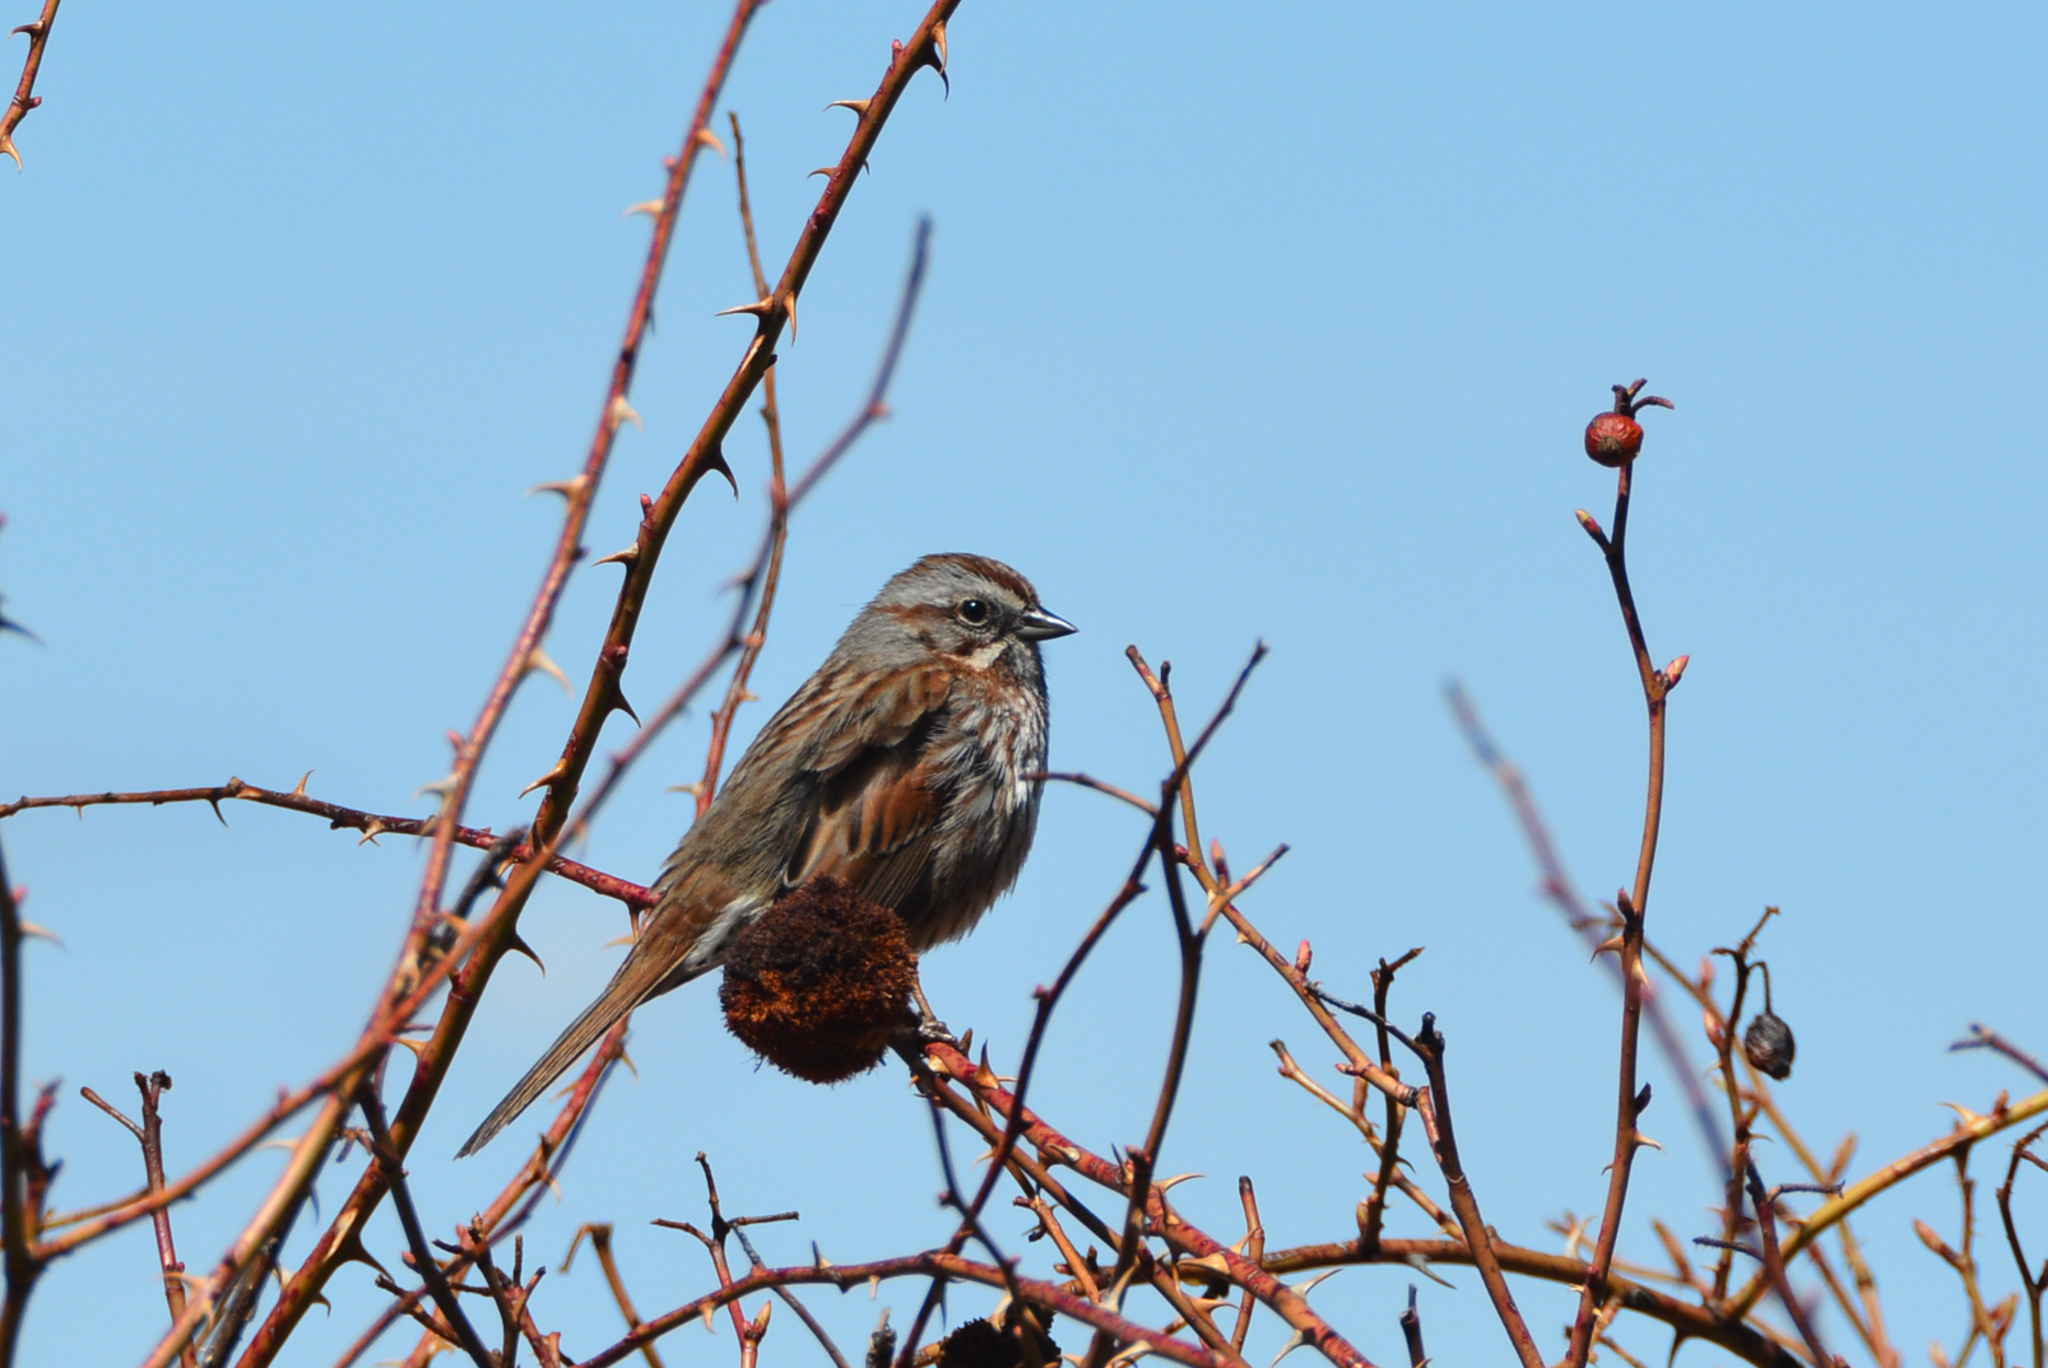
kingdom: Animalia
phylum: Chordata
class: Aves
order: Passeriformes
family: Passerellidae
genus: Melospiza
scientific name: Melospiza melodia
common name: Song sparrow
